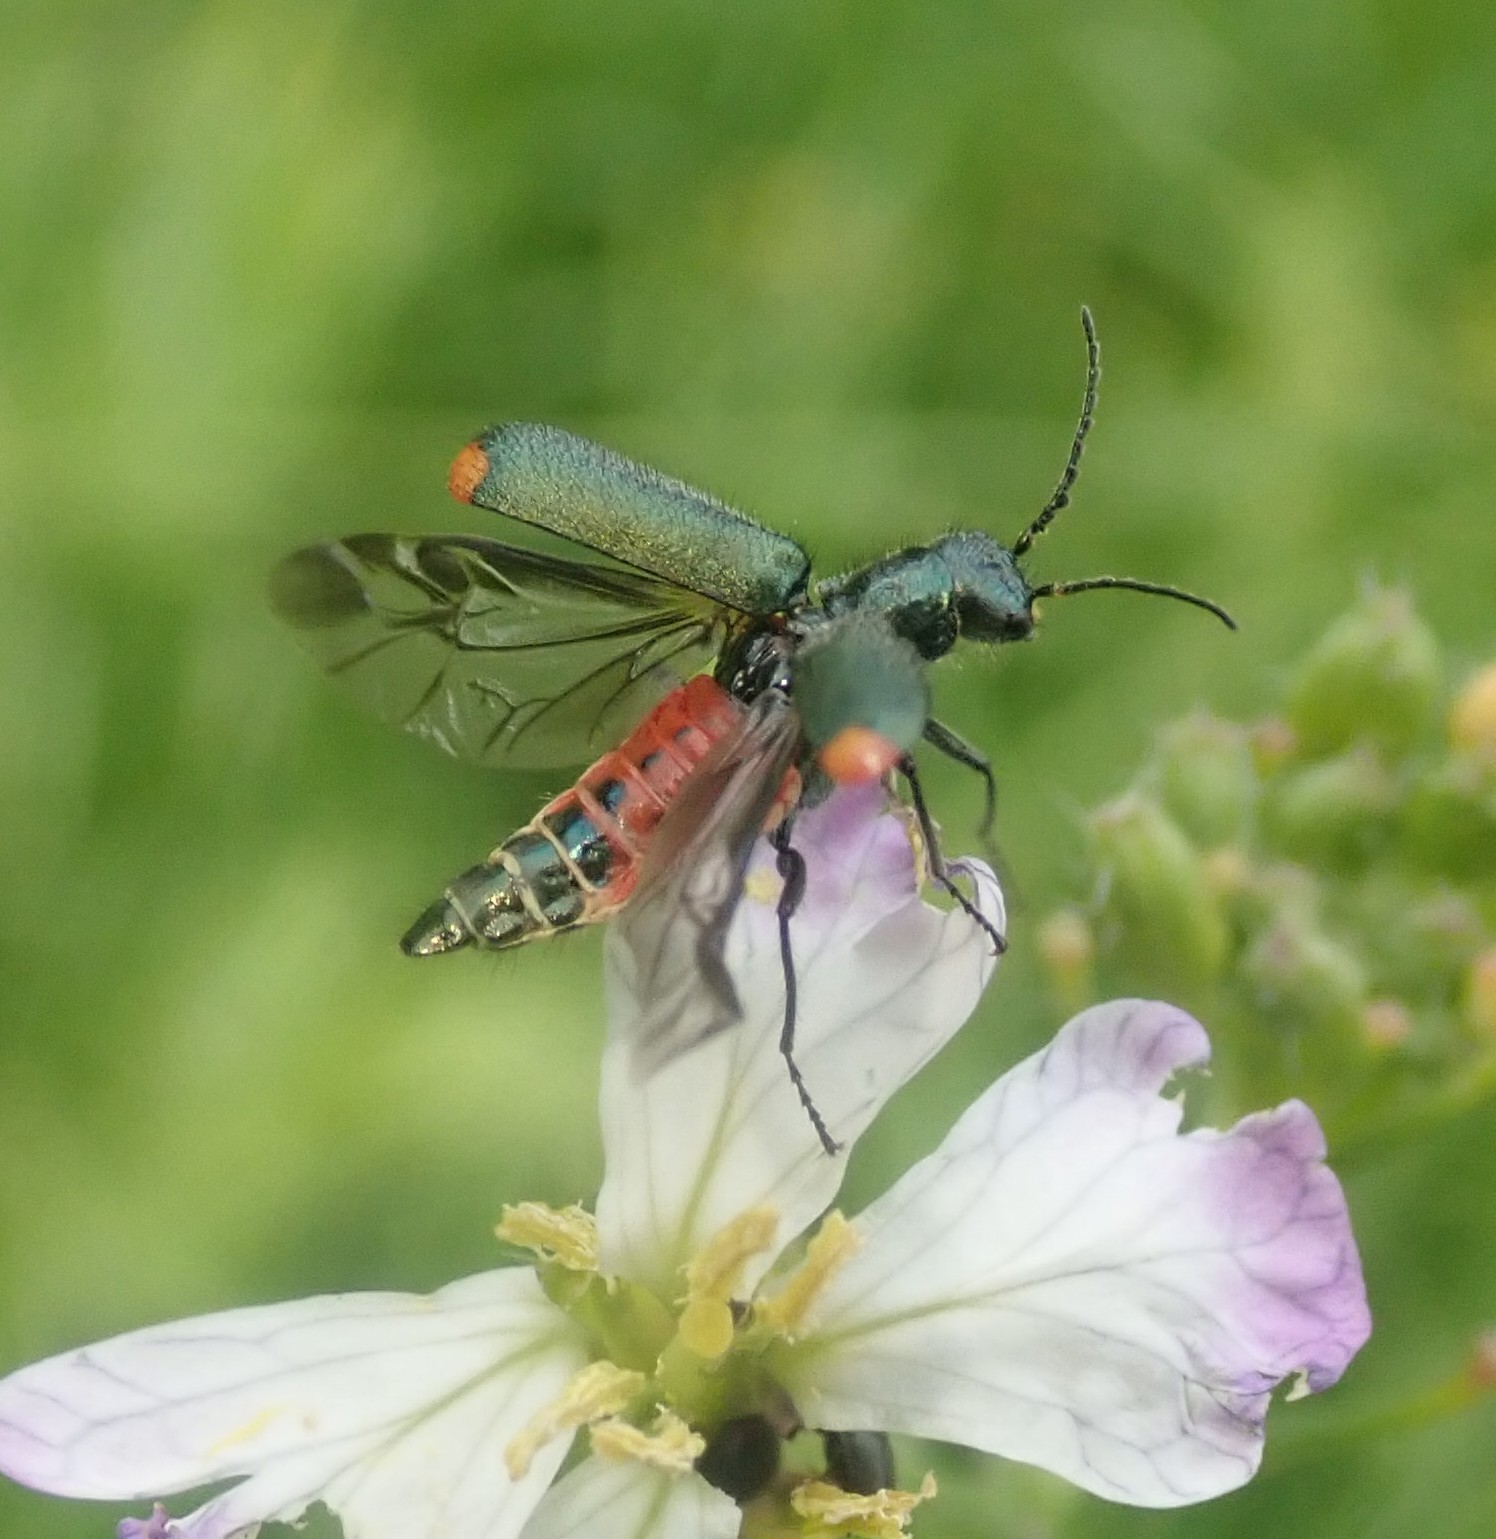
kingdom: Animalia
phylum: Arthropoda
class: Insecta
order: Coleoptera
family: Melyridae
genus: Malachius
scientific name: Malachius bipustulatus
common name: Malachite beetle
